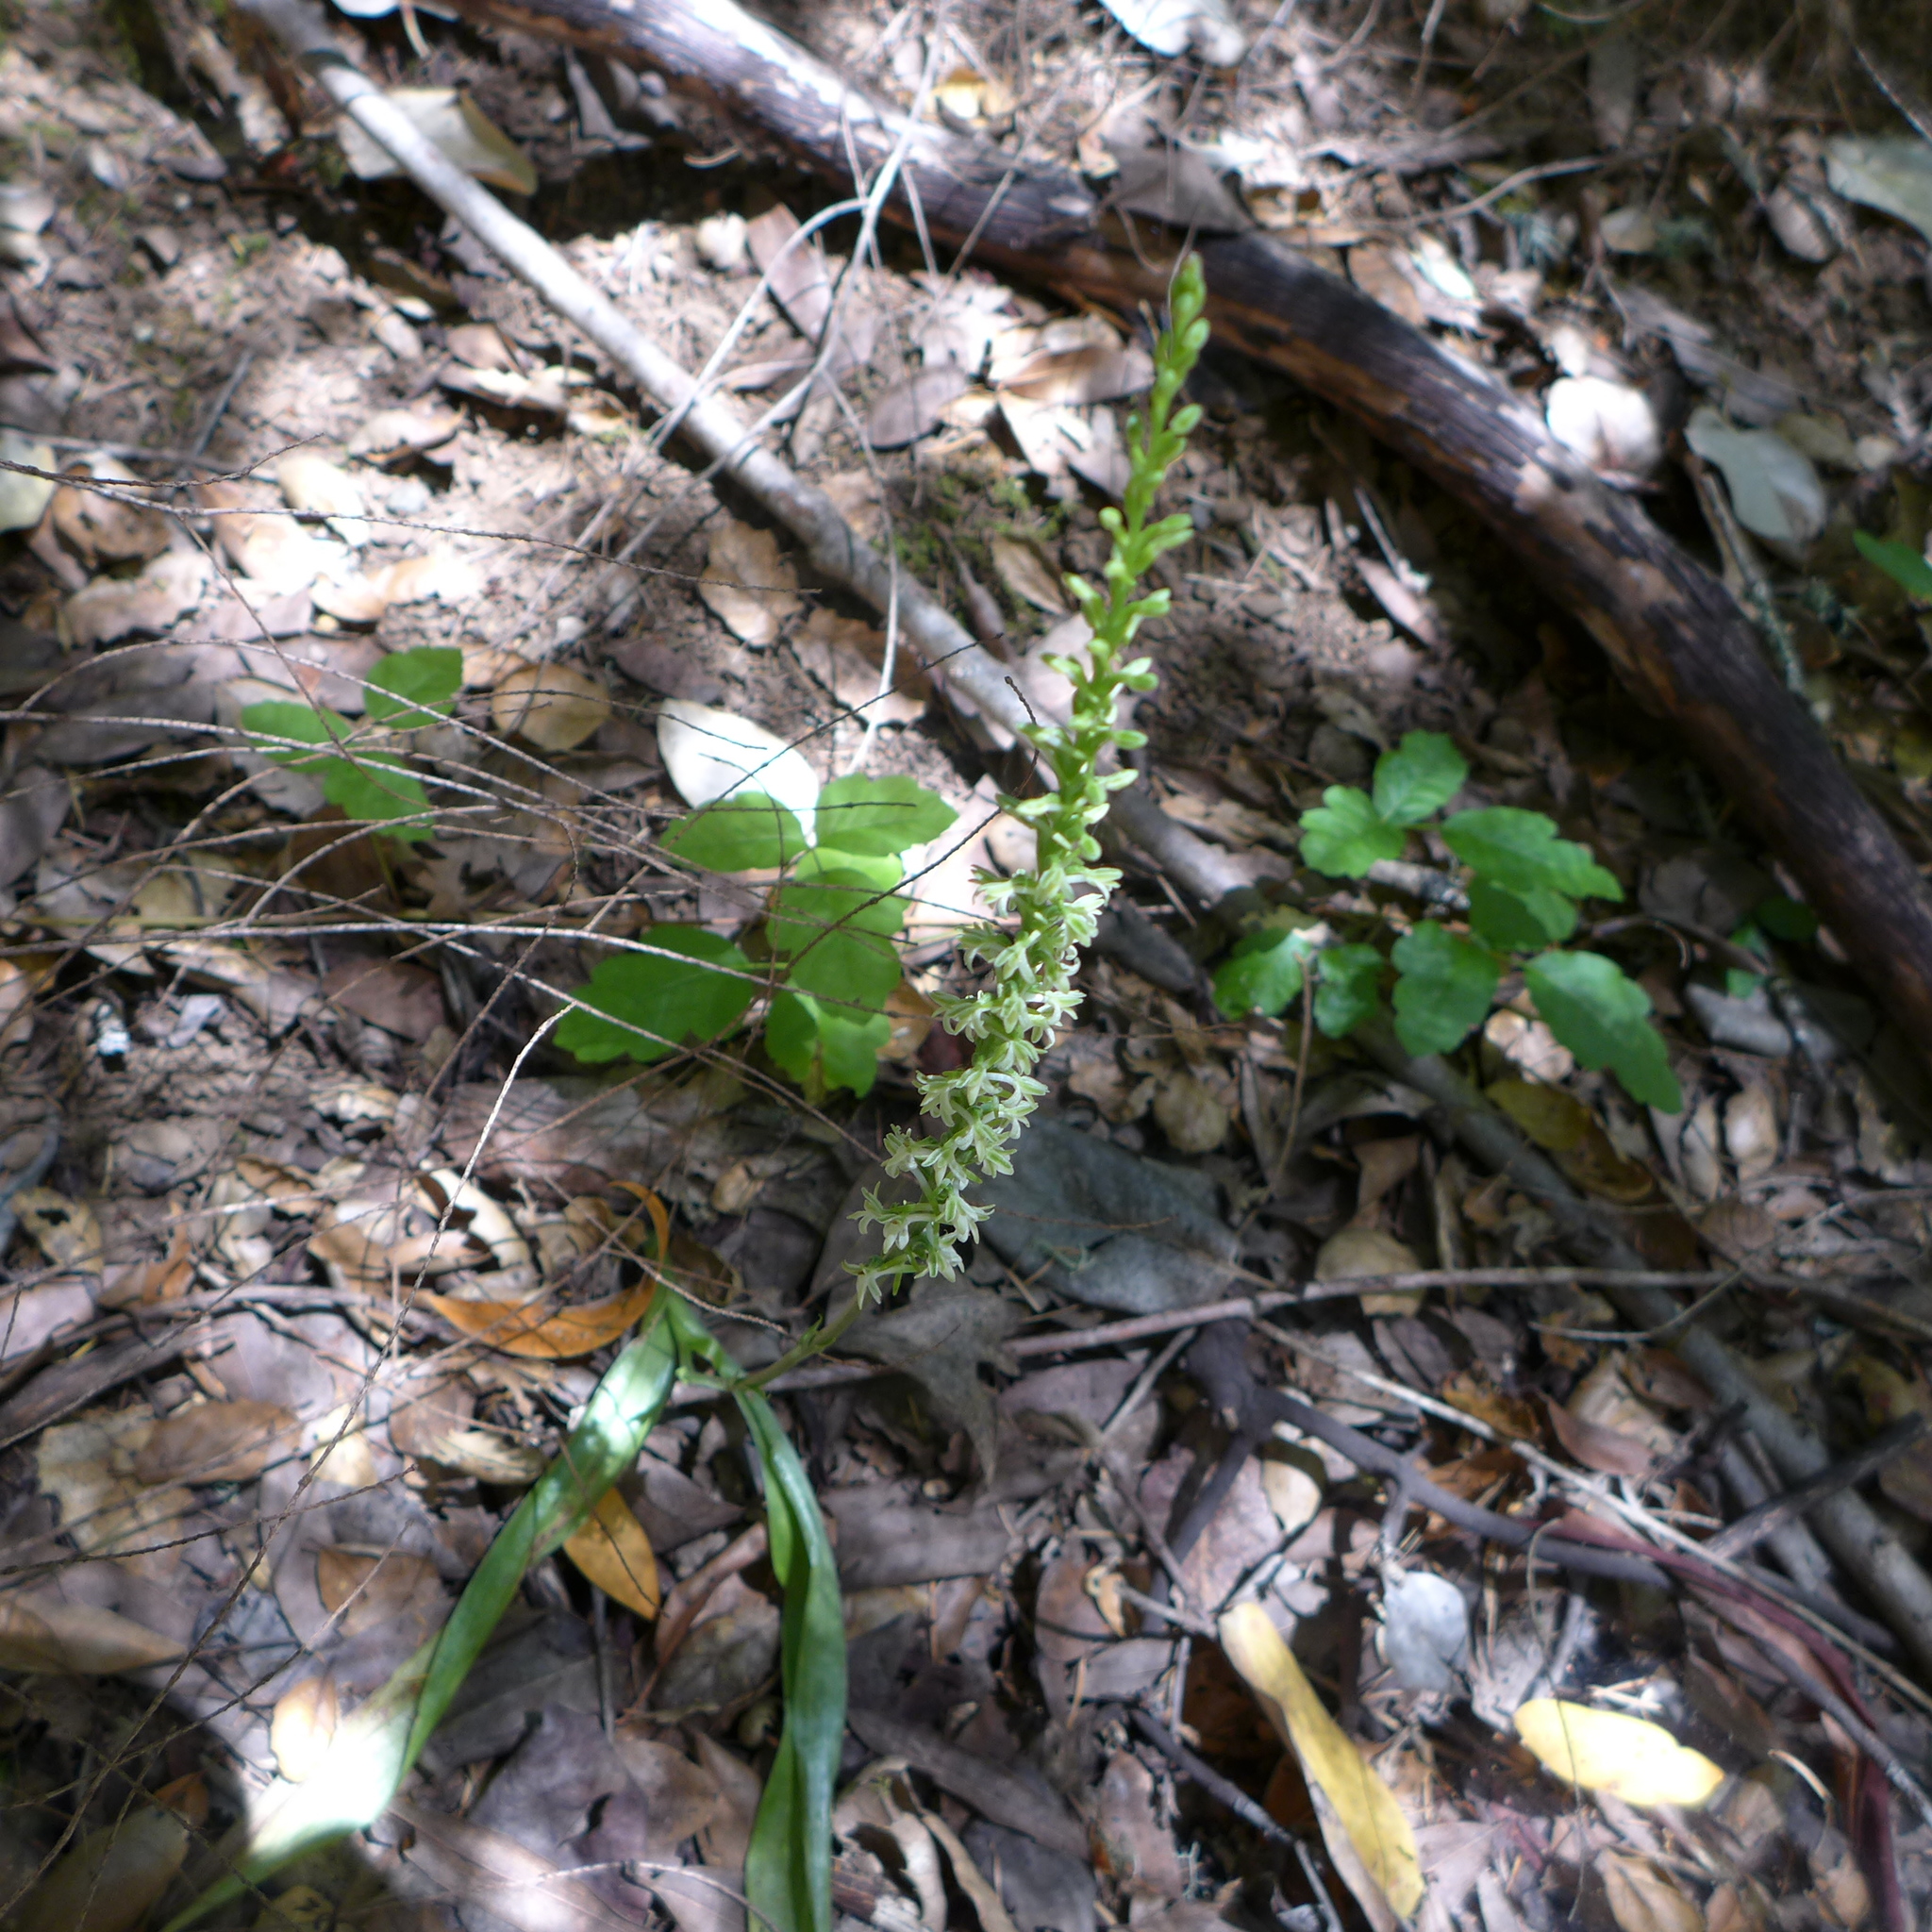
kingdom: Plantae
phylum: Tracheophyta
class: Liliopsida
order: Asparagales
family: Orchidaceae
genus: Platanthera
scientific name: Platanthera transversa
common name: Royal rein orchid
